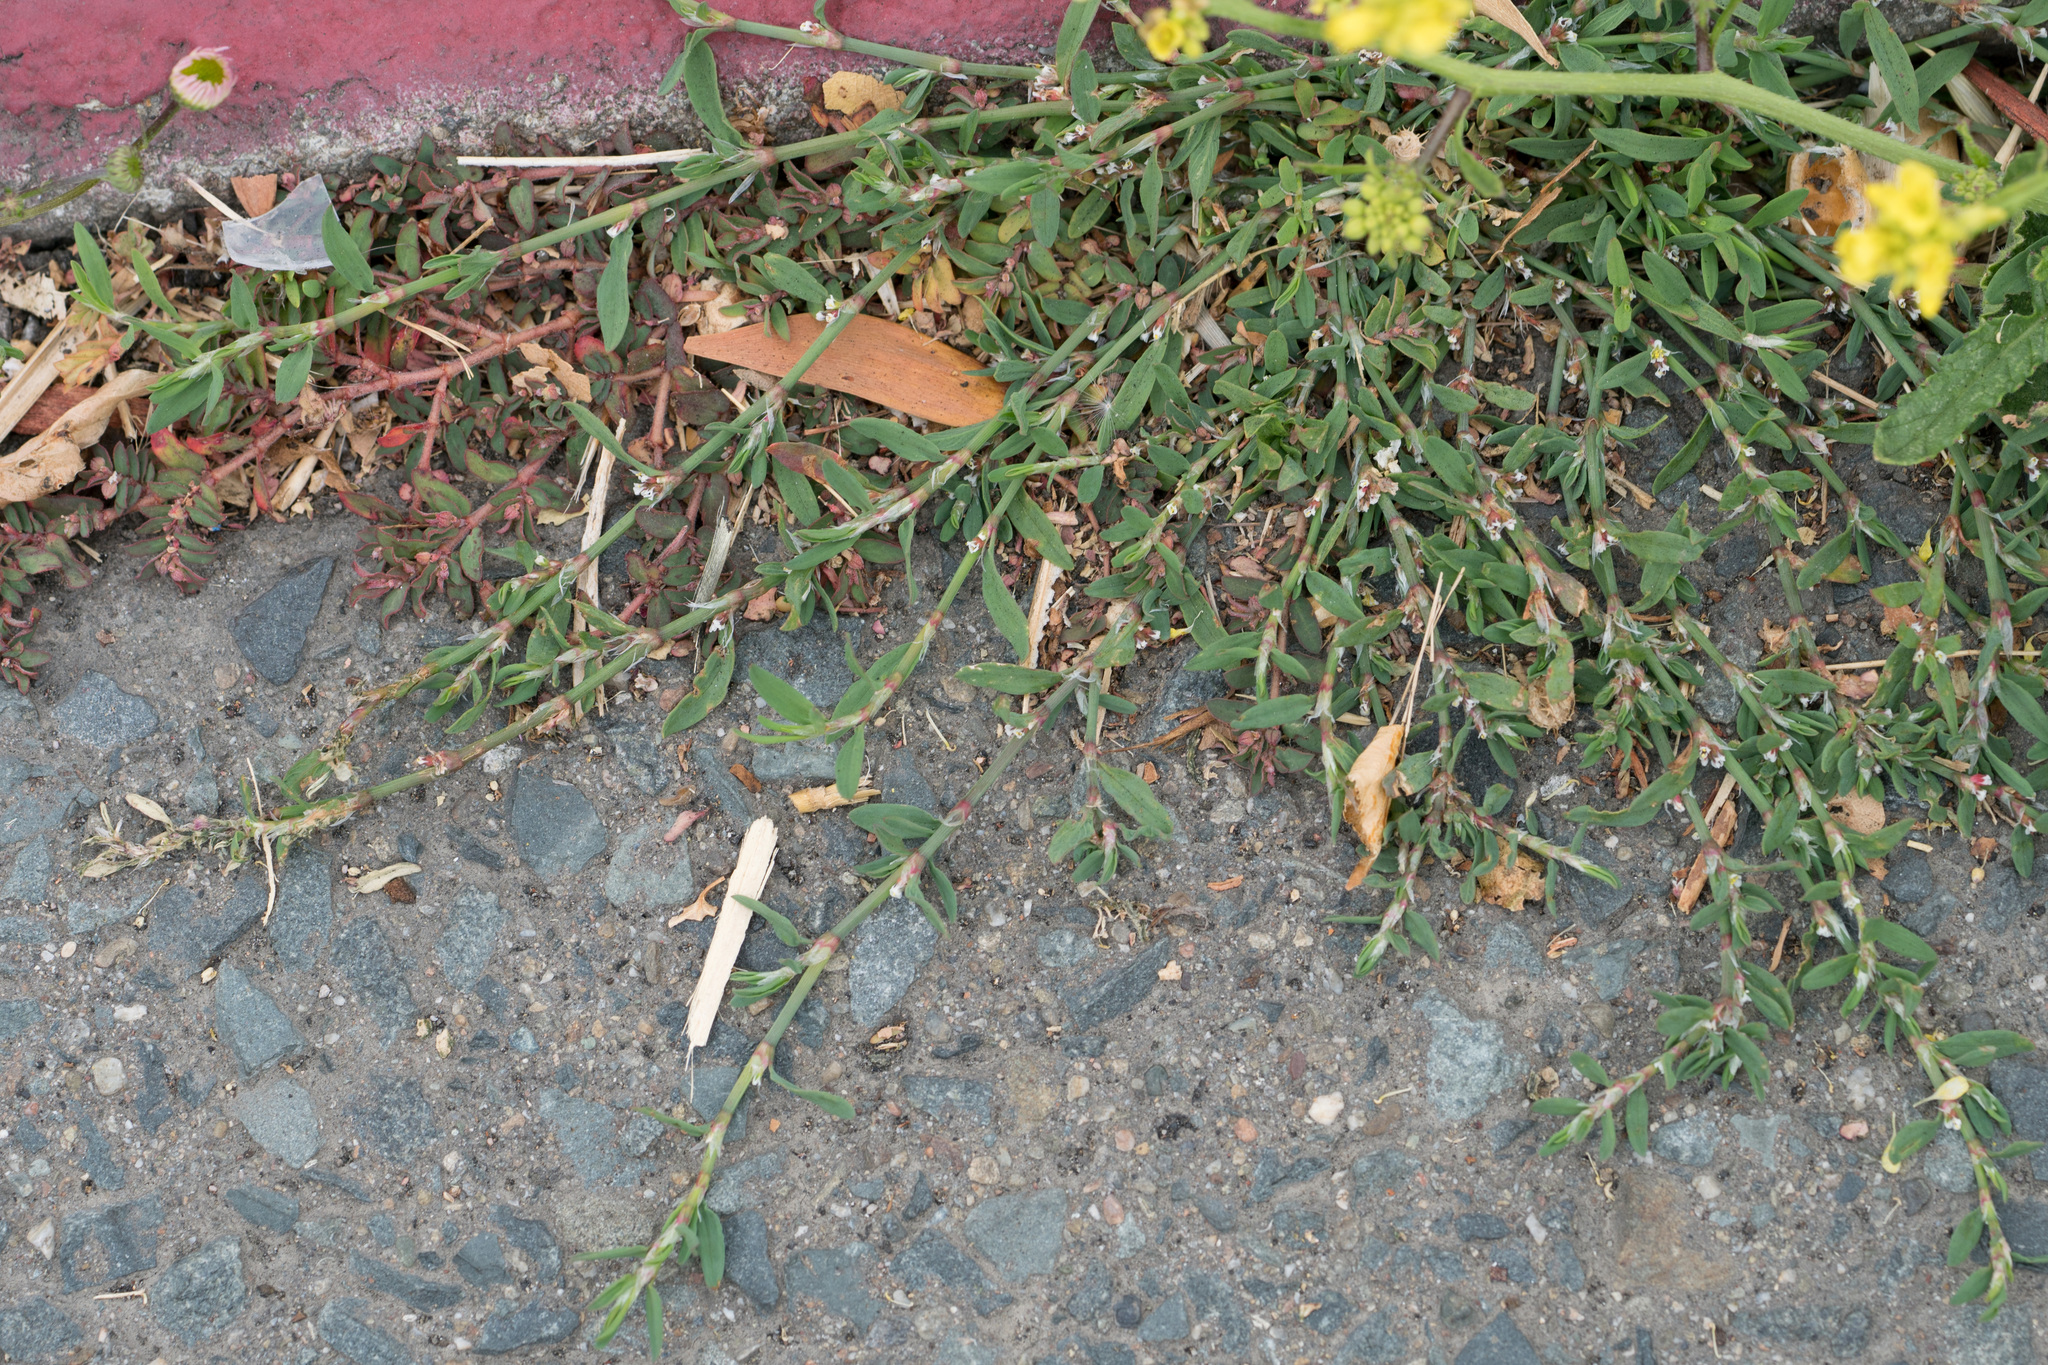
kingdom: Plantae
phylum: Tracheophyta
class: Magnoliopsida
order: Caryophyllales
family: Polygonaceae
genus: Polygonum
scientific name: Polygonum aviculare
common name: Prostrate knotweed
